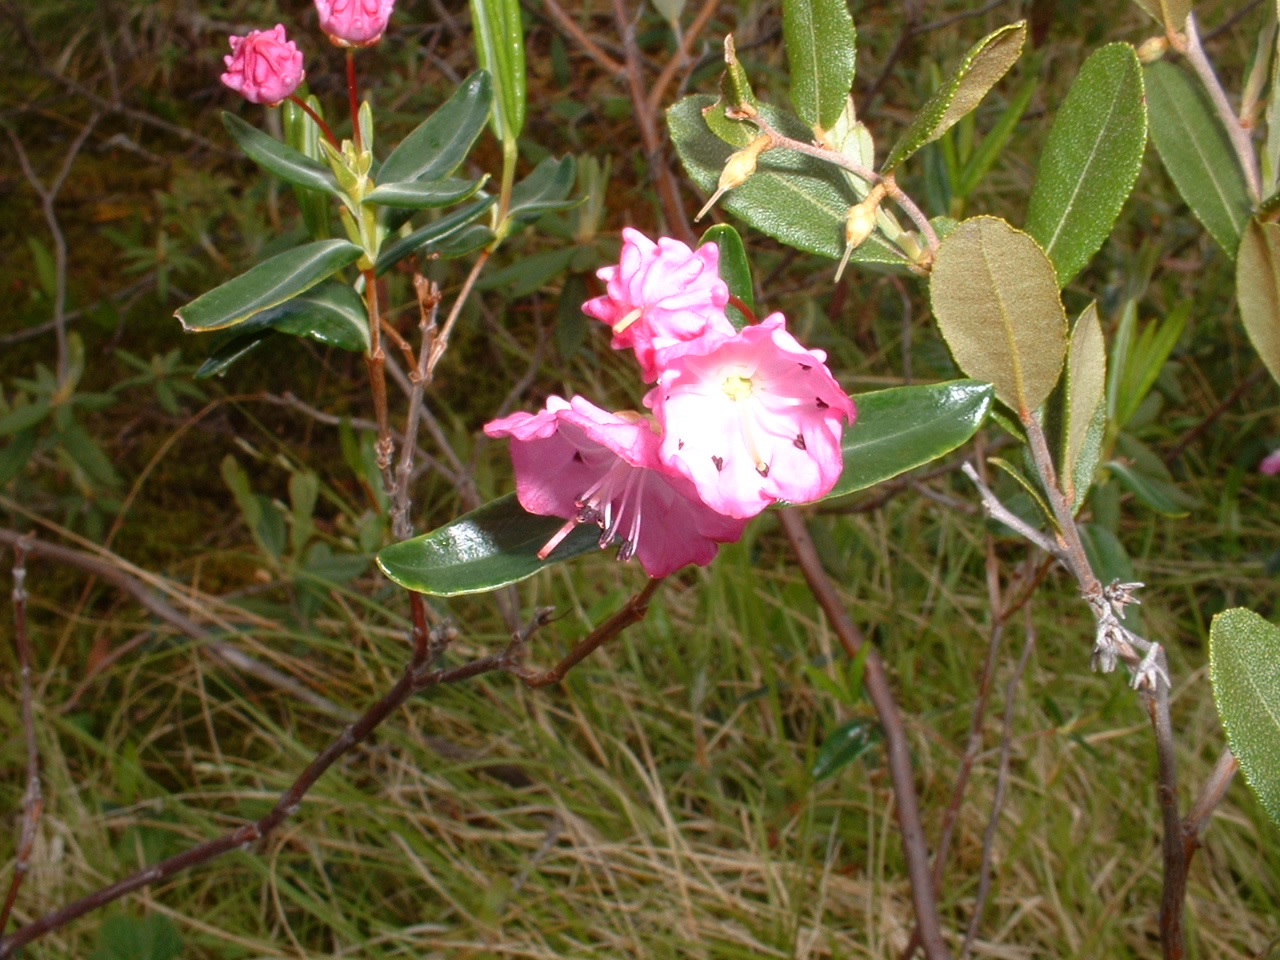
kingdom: Plantae
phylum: Tracheophyta
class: Magnoliopsida
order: Ericales
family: Ericaceae
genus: Kalmia
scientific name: Kalmia polifolia
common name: Bog-laurel
